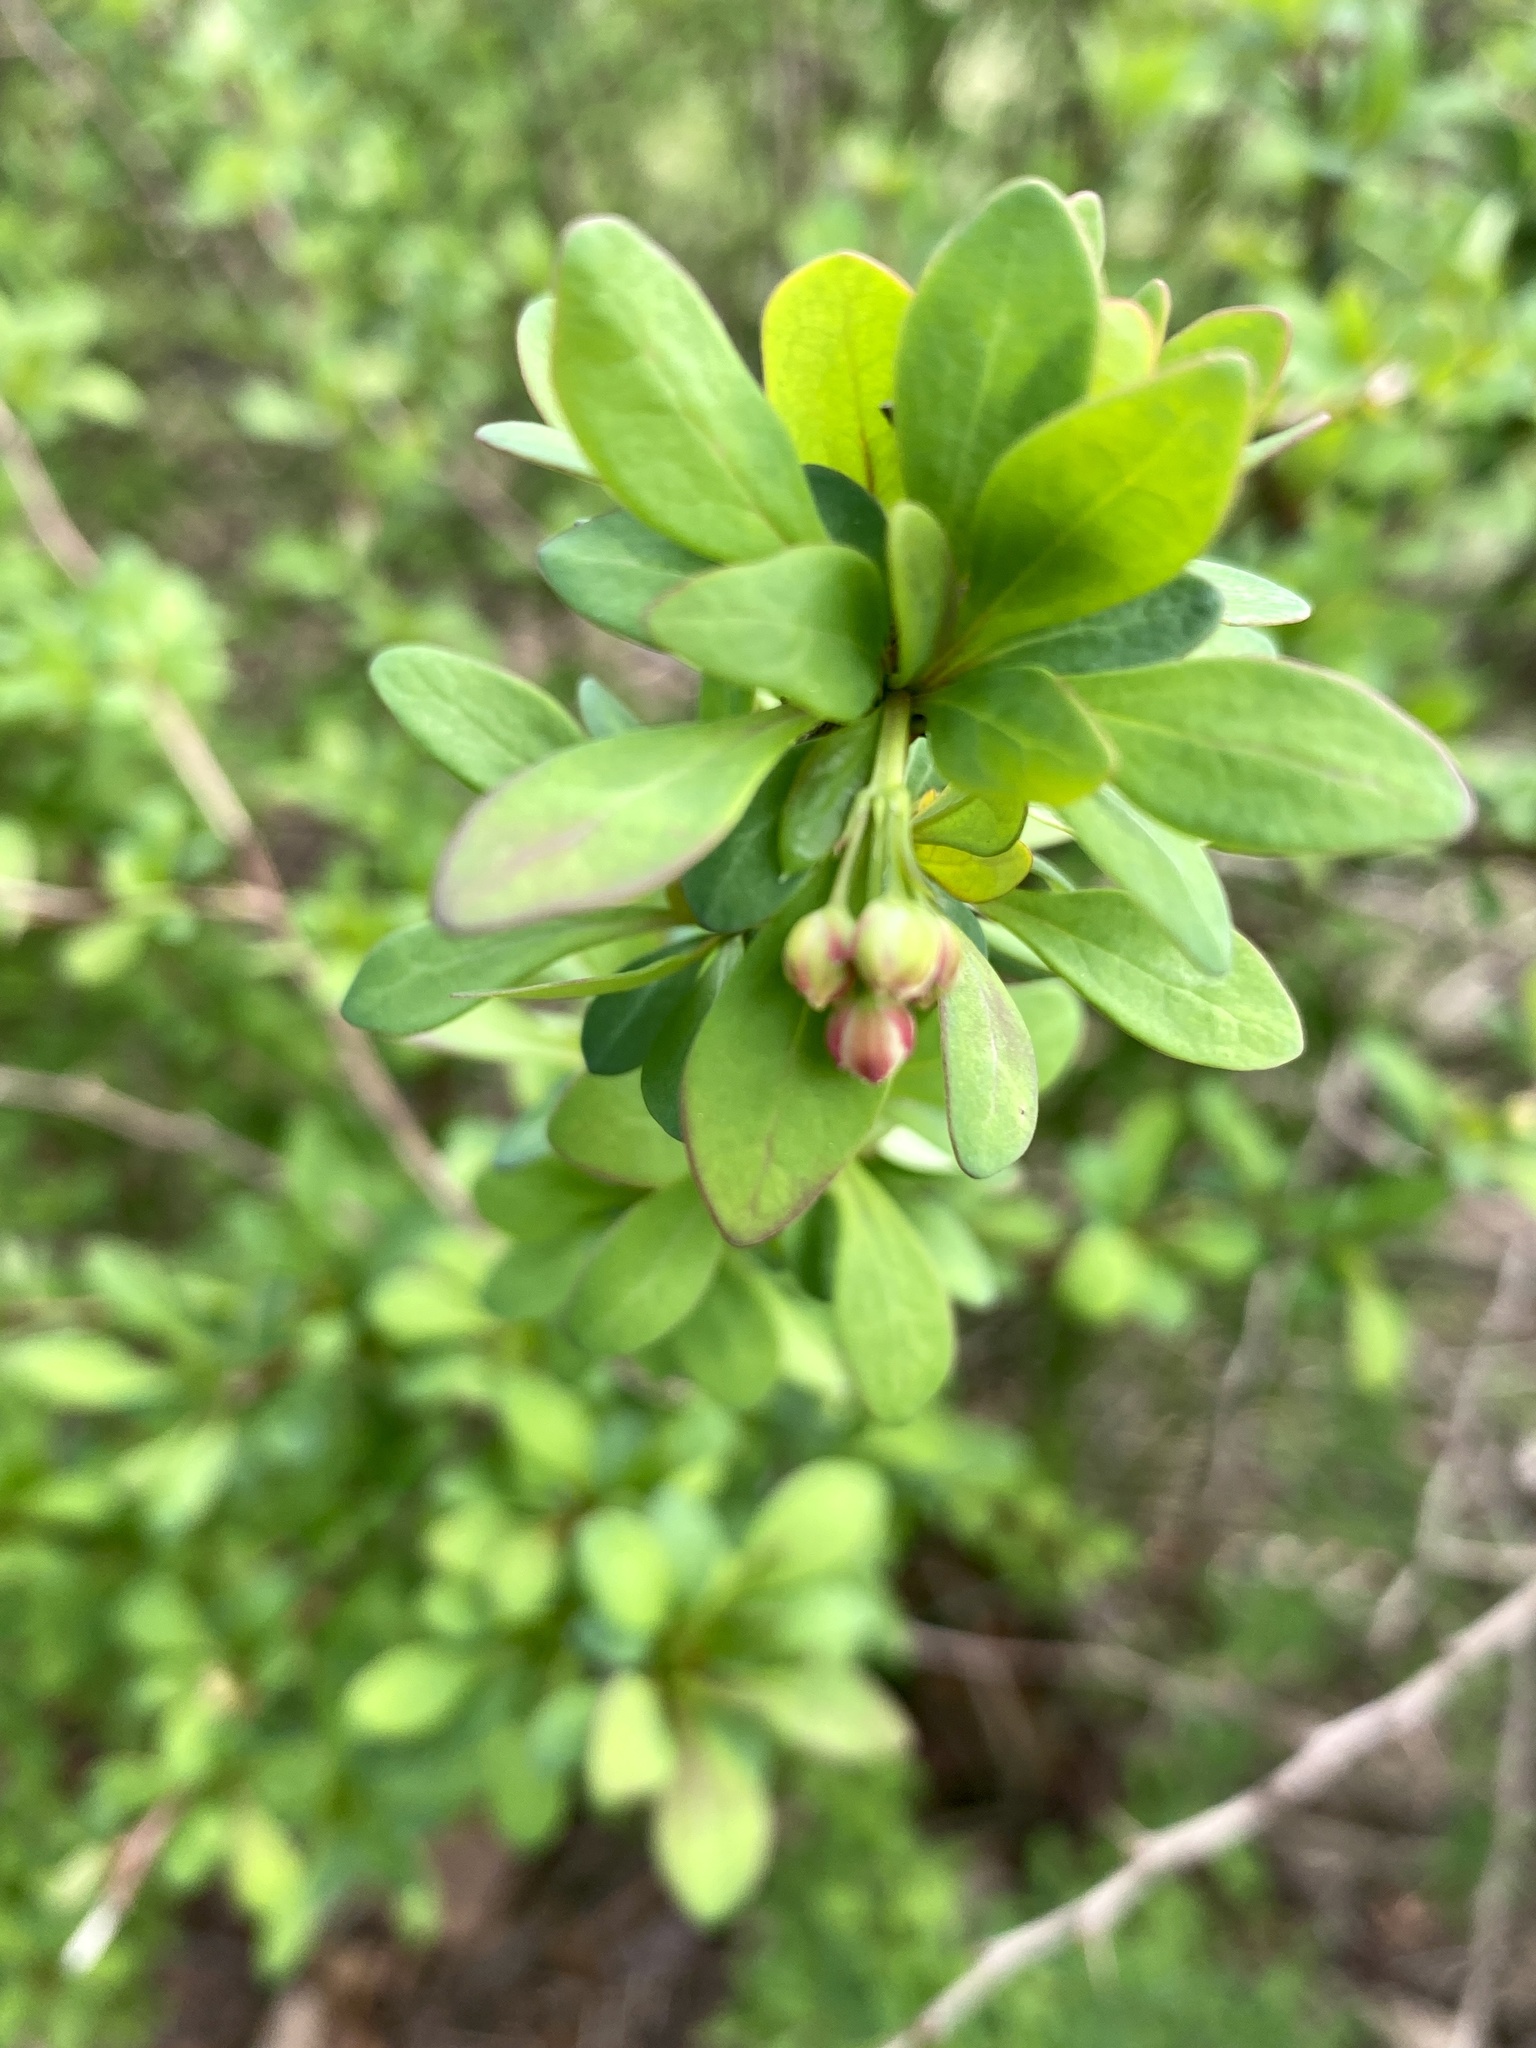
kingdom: Plantae
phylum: Tracheophyta
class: Magnoliopsida
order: Ranunculales
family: Berberidaceae
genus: Berberis
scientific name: Berberis thunbergii
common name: Japanese barberry
